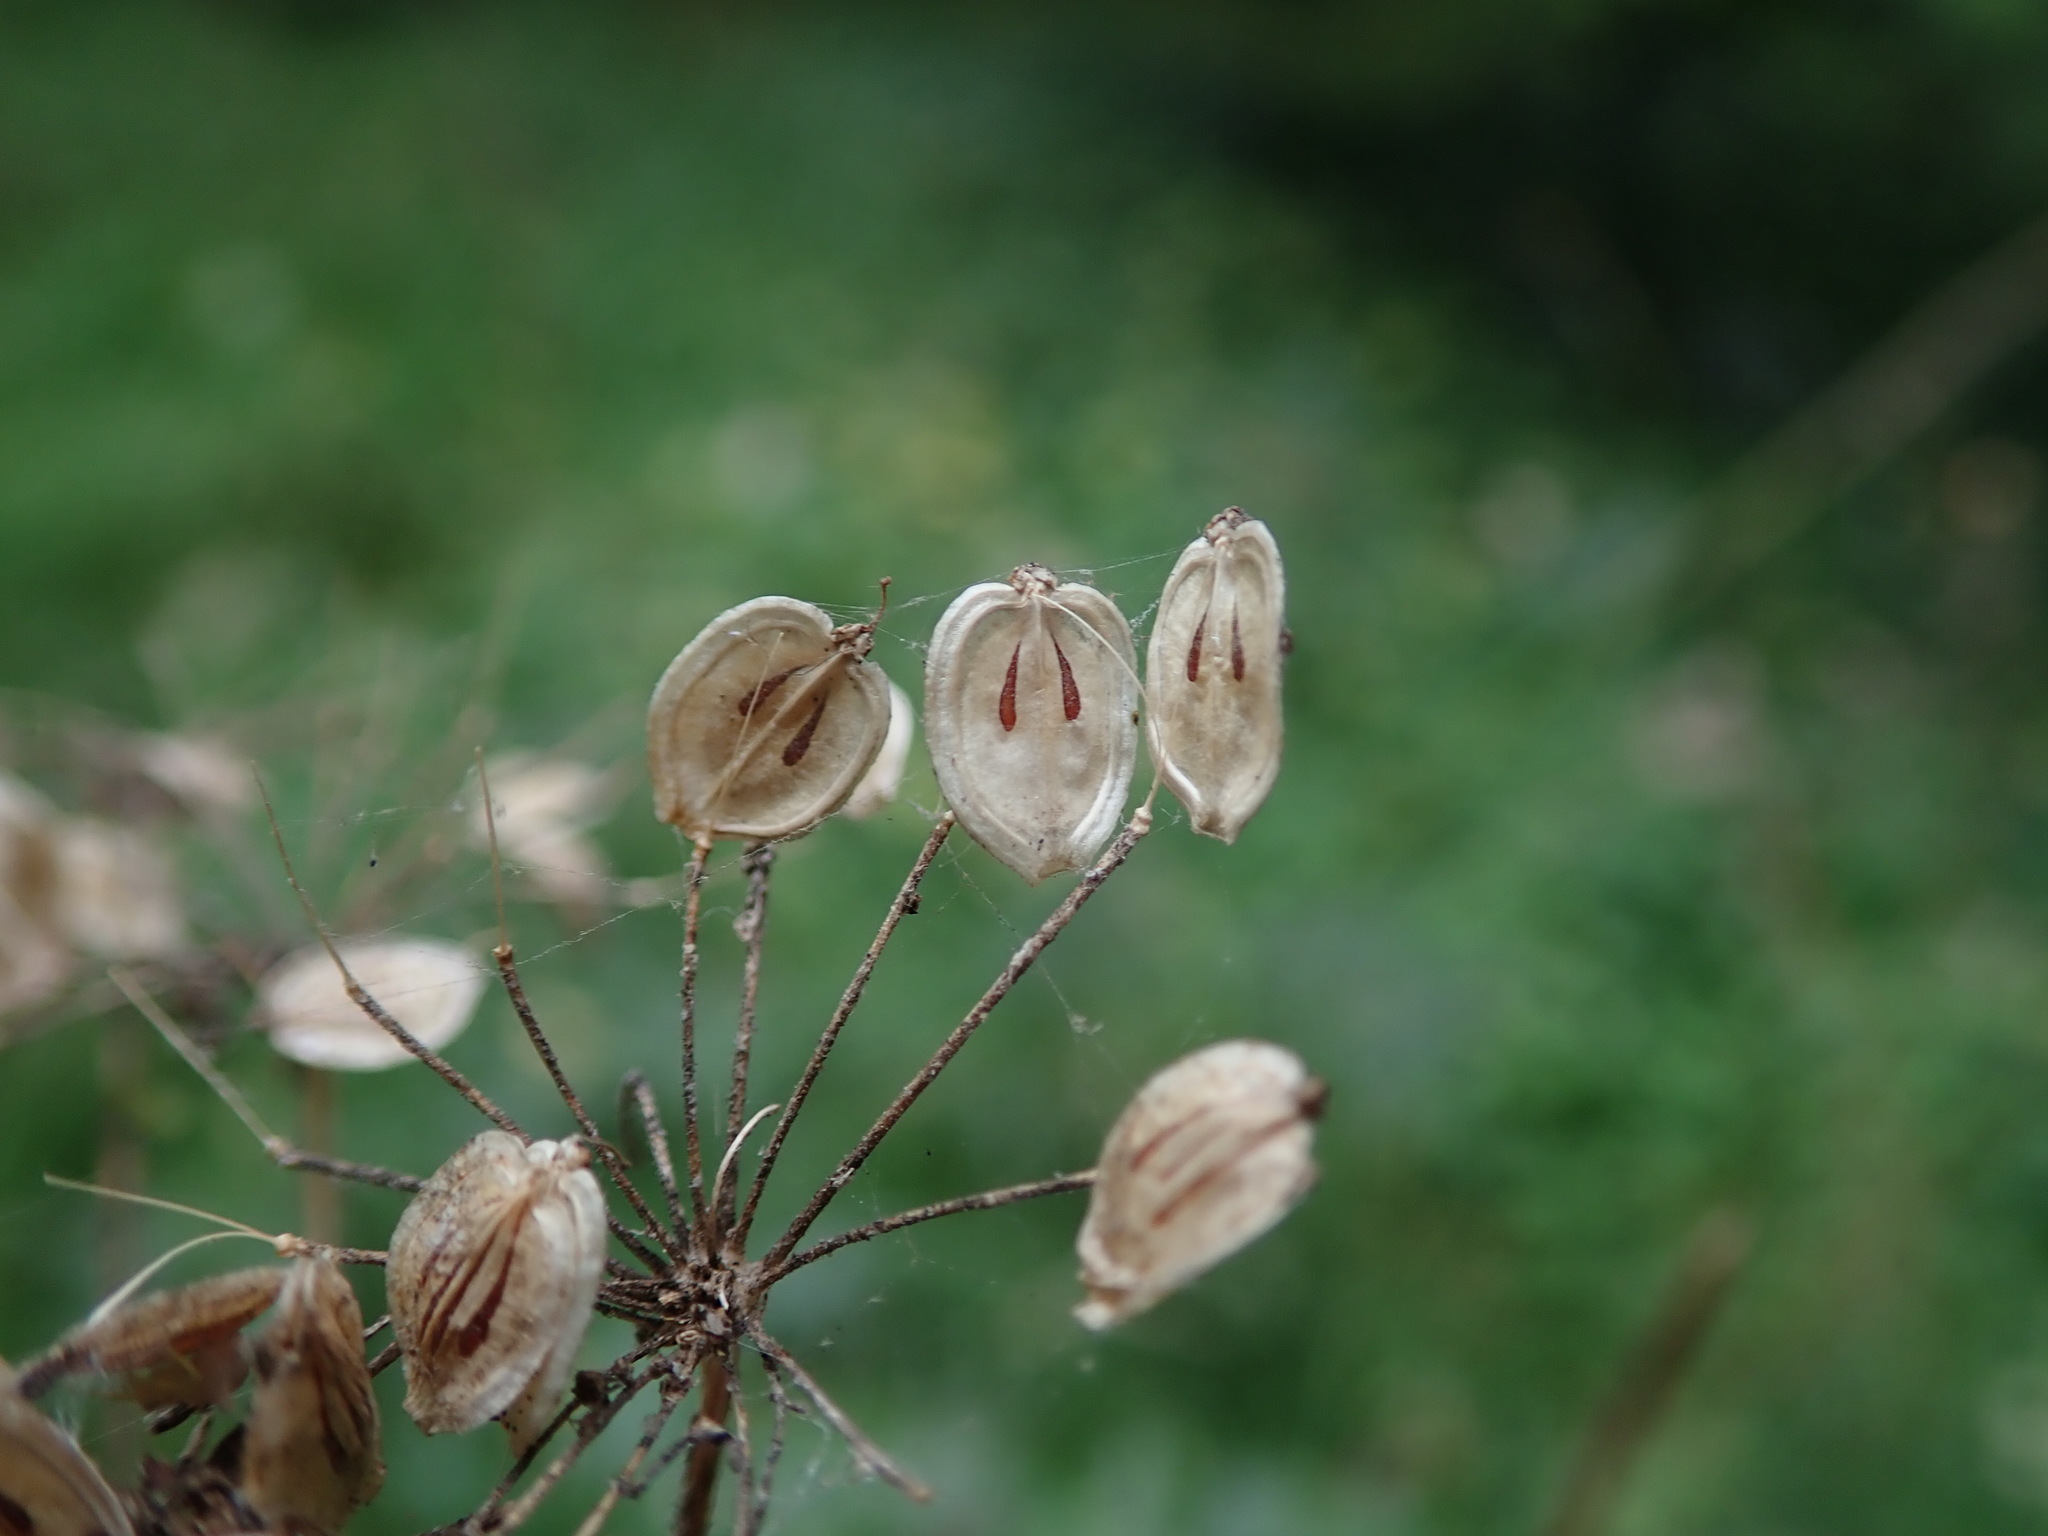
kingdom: Plantae
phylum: Tracheophyta
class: Magnoliopsida
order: Apiales
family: Apiaceae
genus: Heracleum
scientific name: Heracleum sphondylium
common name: Hogweed
